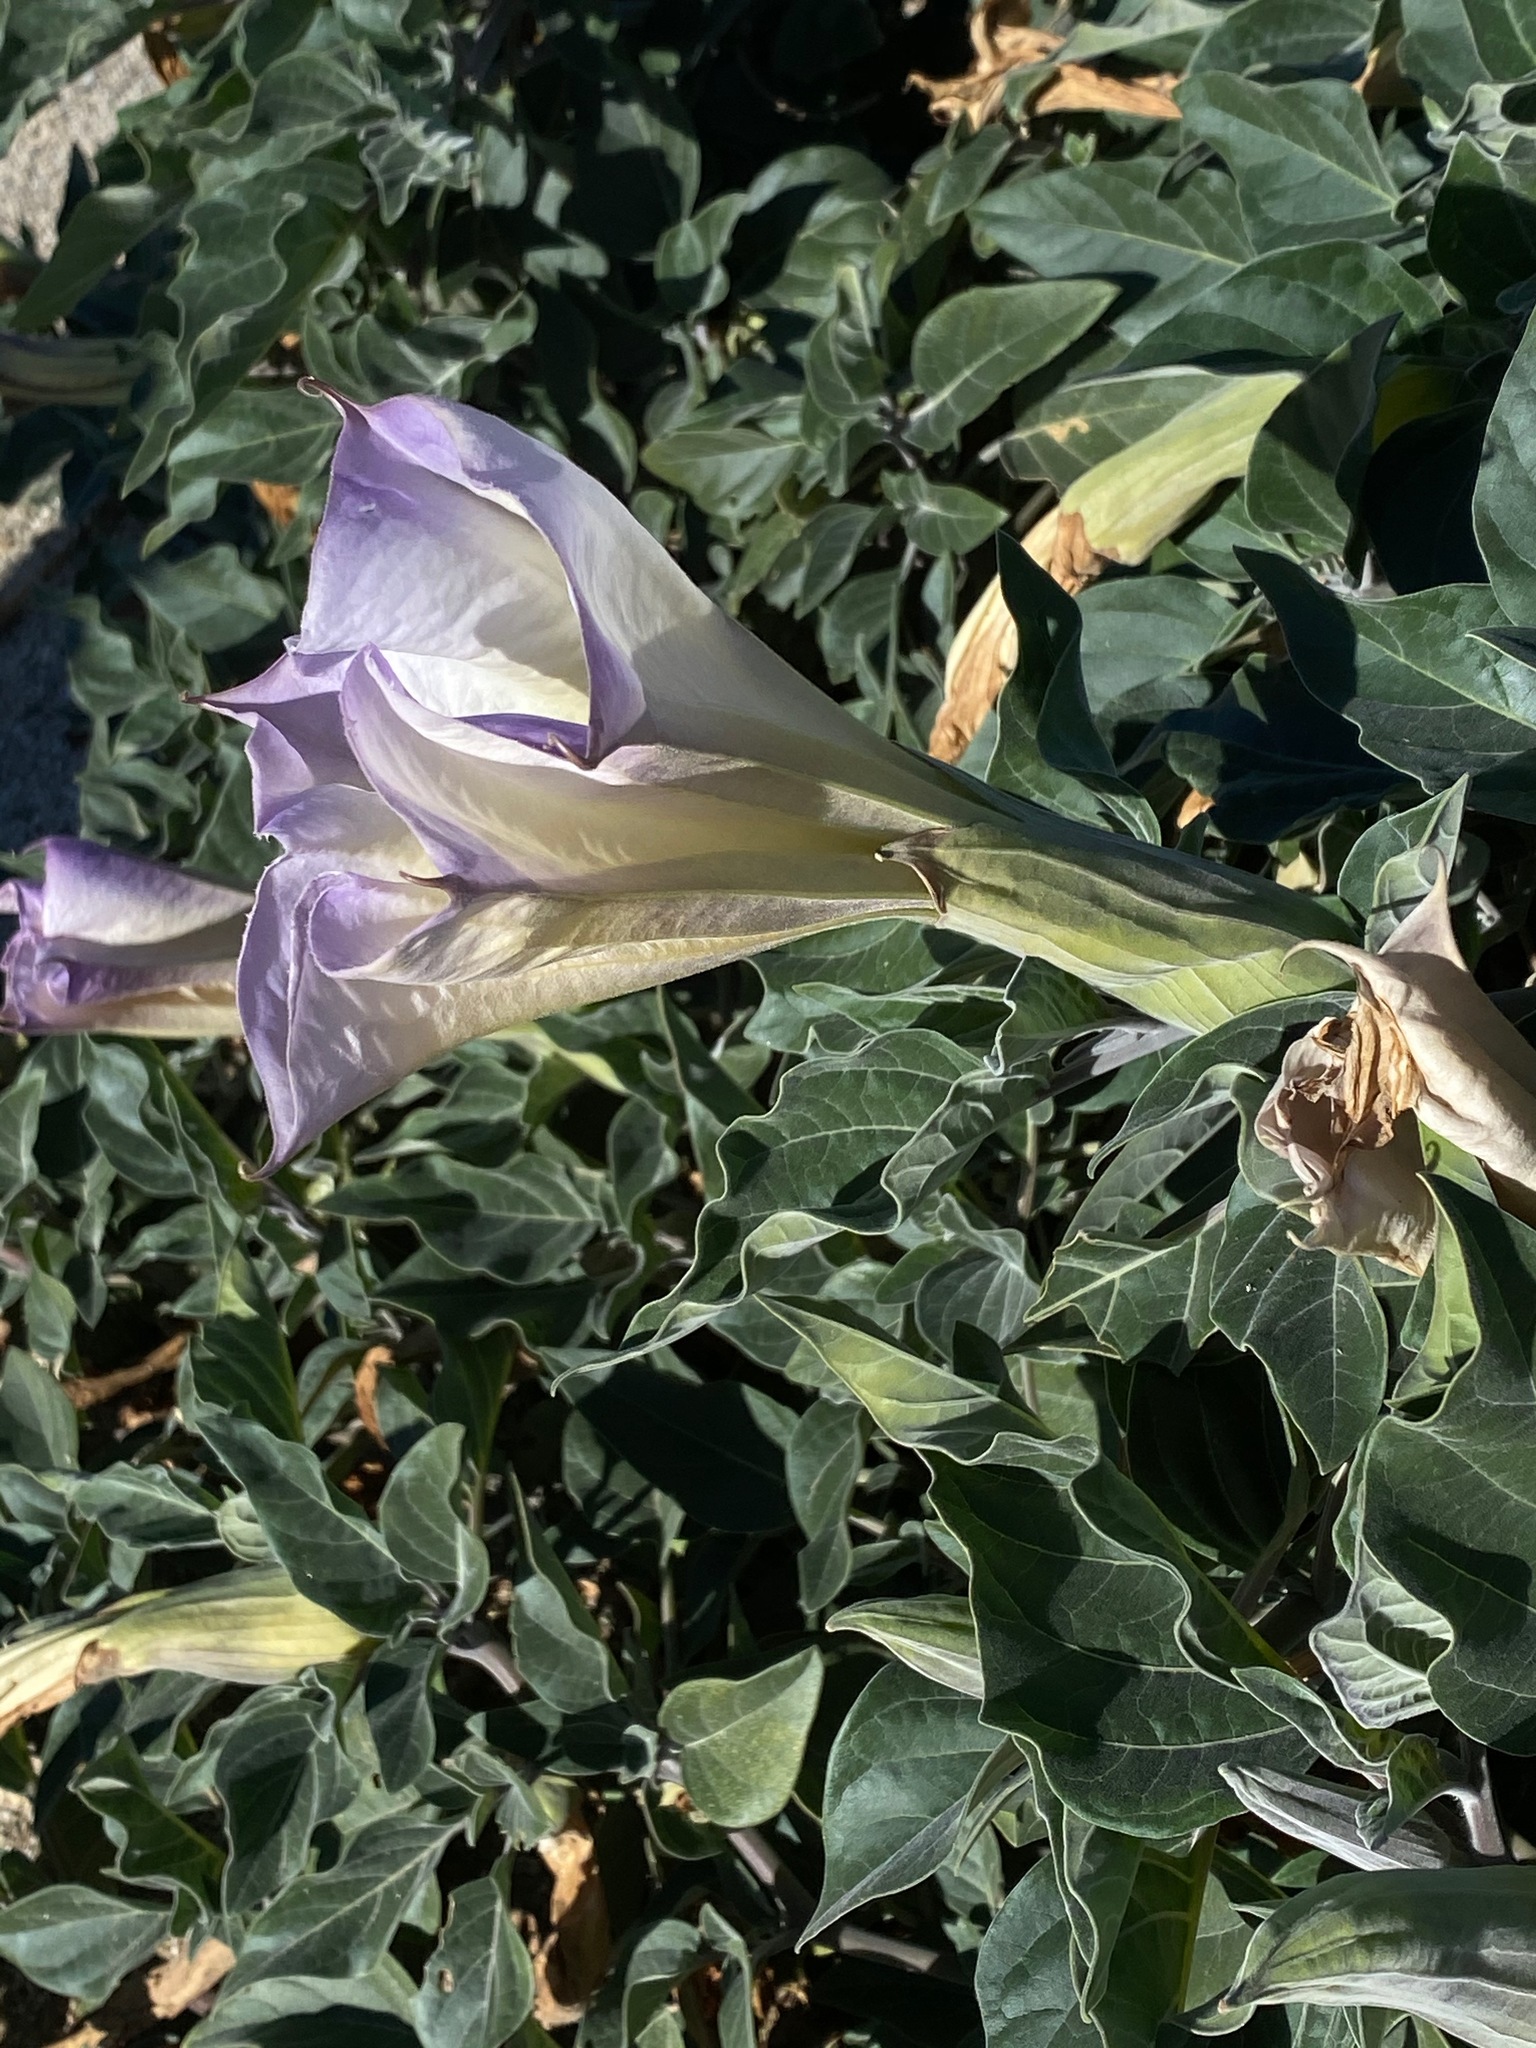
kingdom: Plantae
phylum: Tracheophyta
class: Magnoliopsida
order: Solanales
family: Solanaceae
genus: Datura
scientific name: Datura wrightii
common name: Sacred thorn-apple
